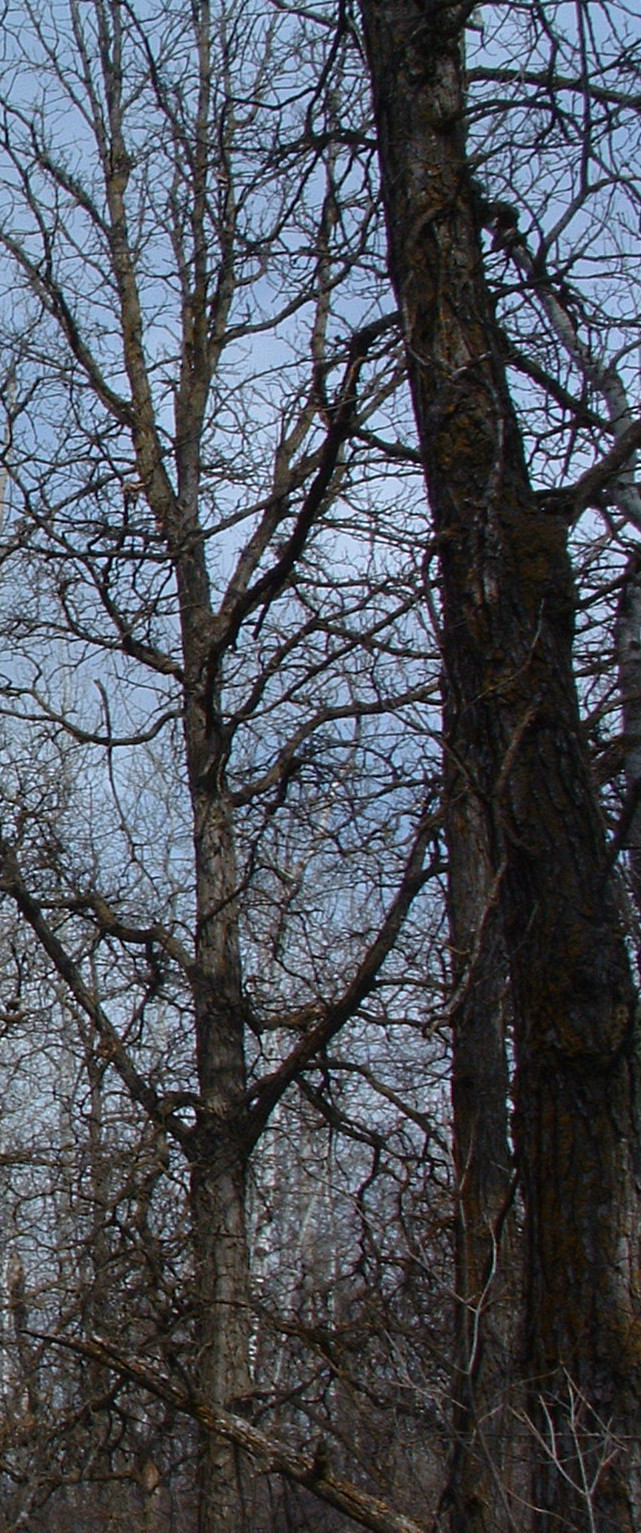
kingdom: Plantae
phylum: Tracheophyta
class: Magnoliopsida
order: Fagales
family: Fagaceae
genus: Quercus
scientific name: Quercus macrocarpa
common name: Bur oak
